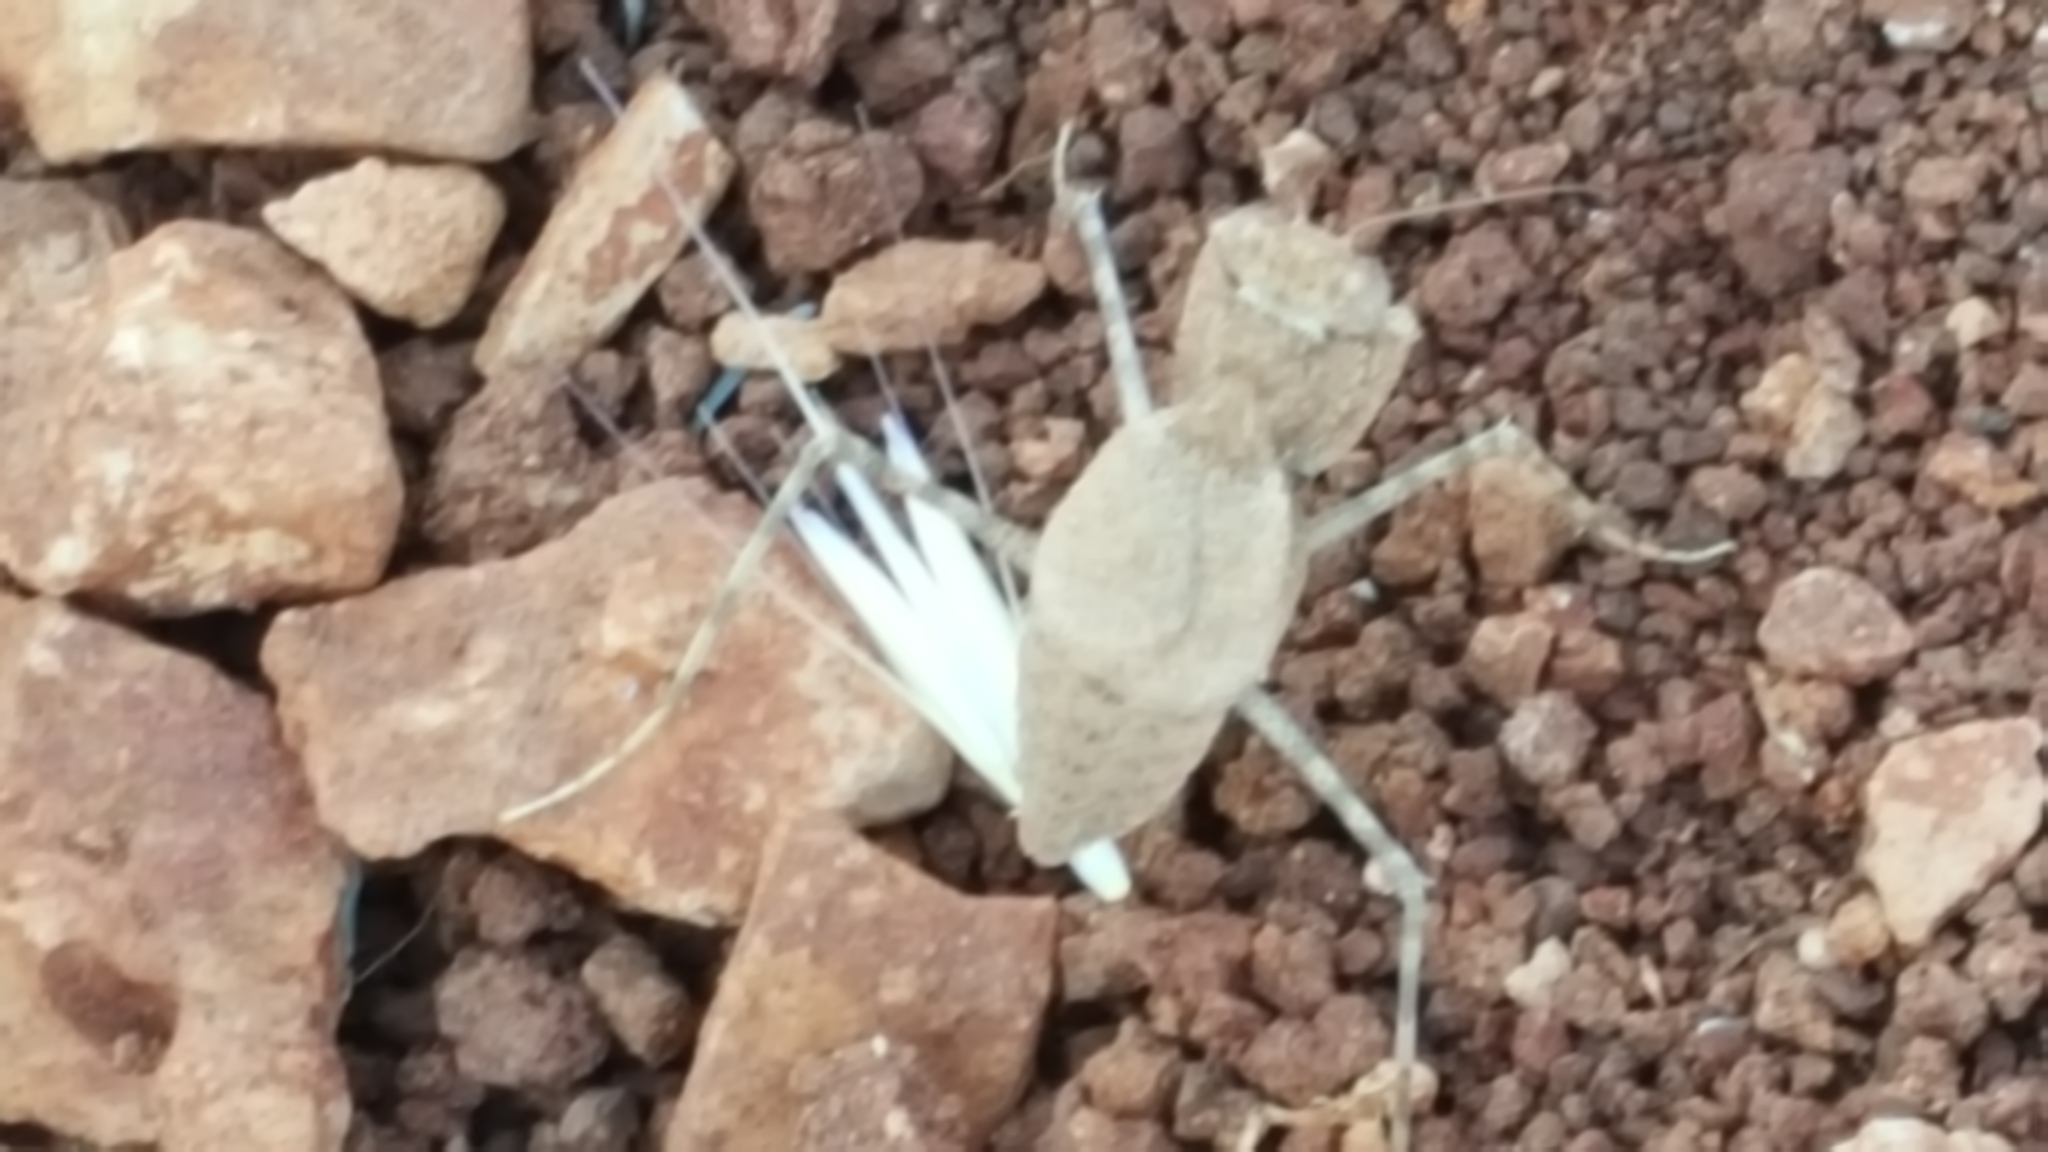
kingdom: Animalia
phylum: Arthropoda
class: Insecta
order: Mantodea
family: Eremiaphilidae
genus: Eremiaphila
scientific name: Eremiaphila genei
